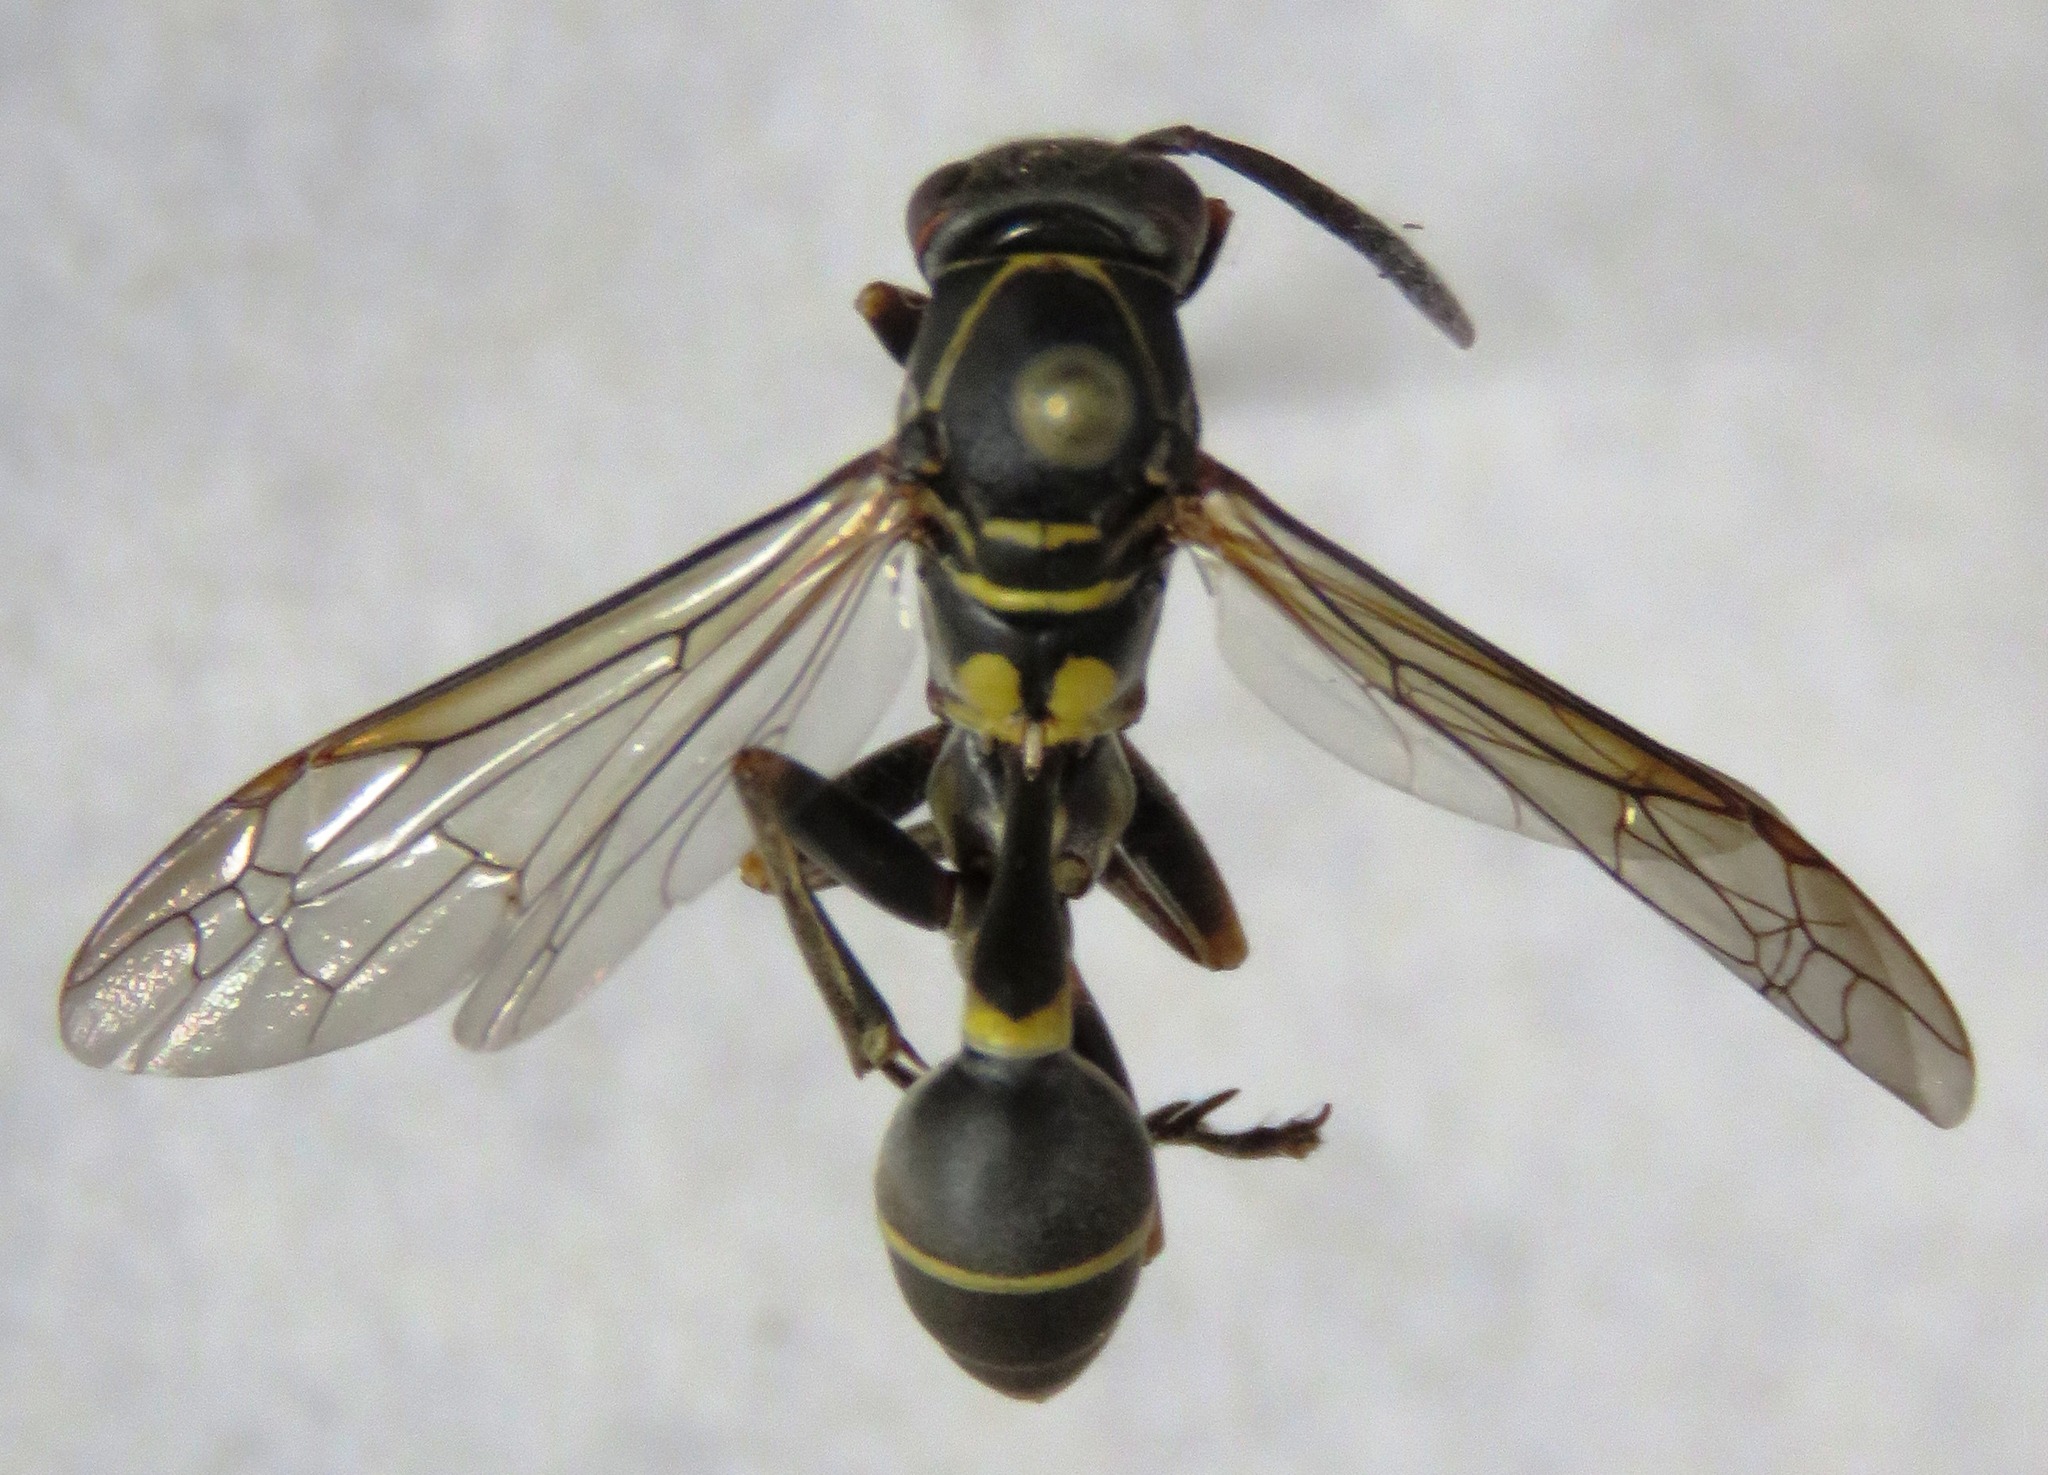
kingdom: Animalia
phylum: Arthropoda
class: Insecta
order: Hymenoptera
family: Vespidae
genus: Mischocyttarus
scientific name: Mischocyttarus rufidens
